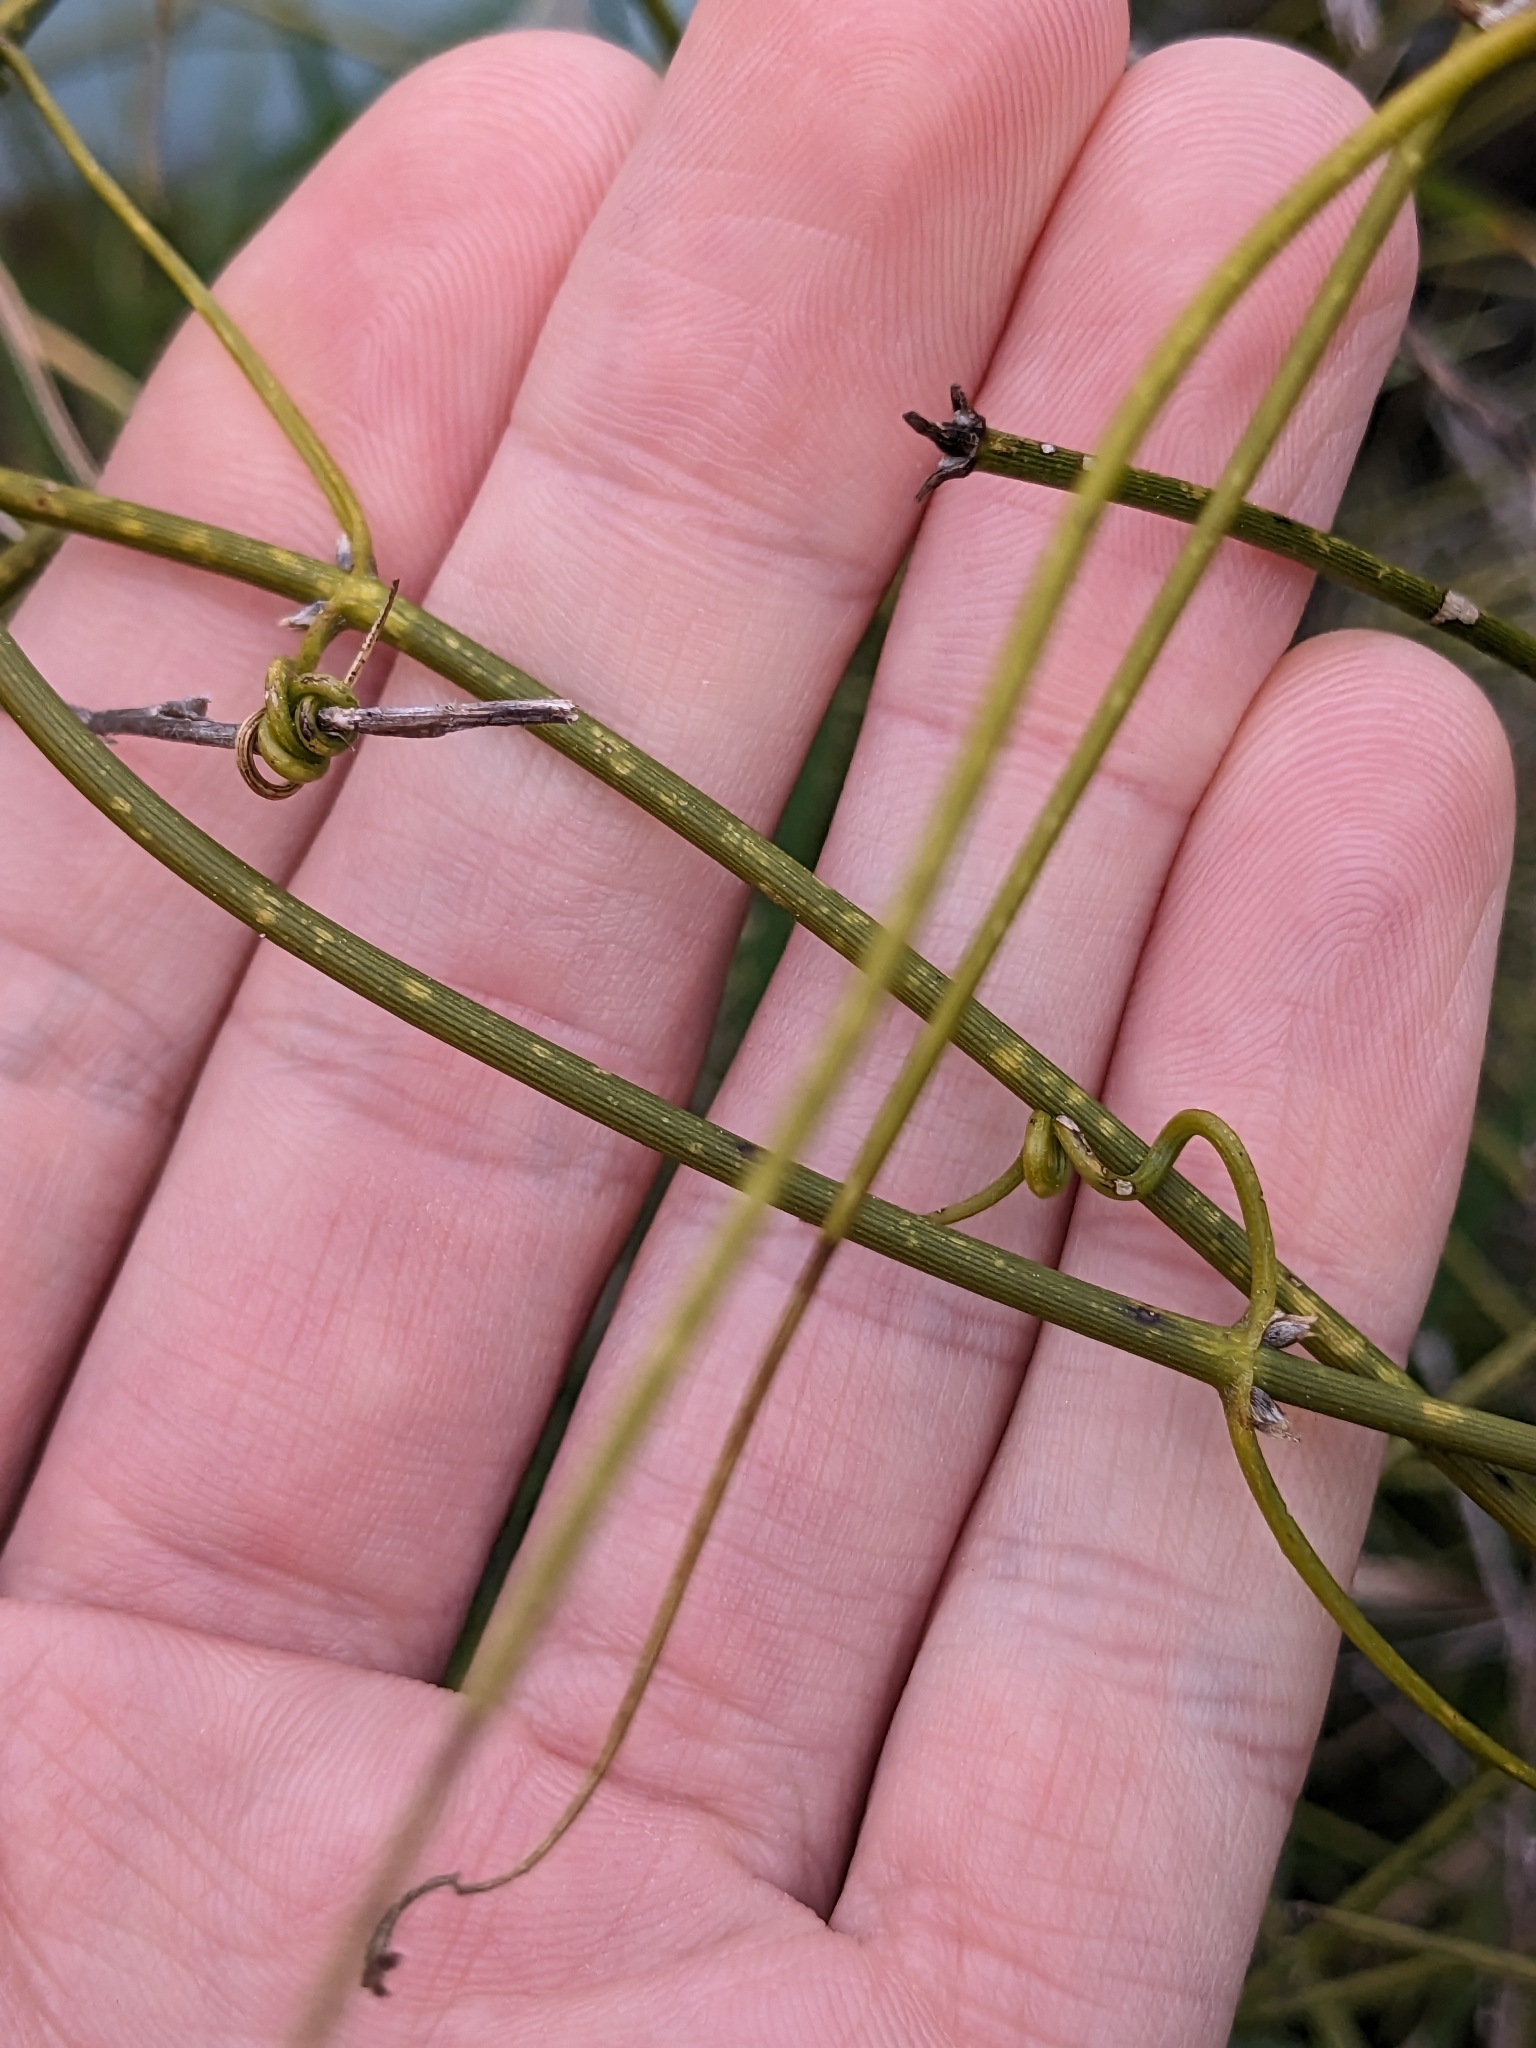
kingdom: Plantae
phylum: Tracheophyta
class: Magnoliopsida
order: Ranunculales
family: Ranunculaceae
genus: Clematis
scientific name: Clematis afoliata
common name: Rush-stem clematis
